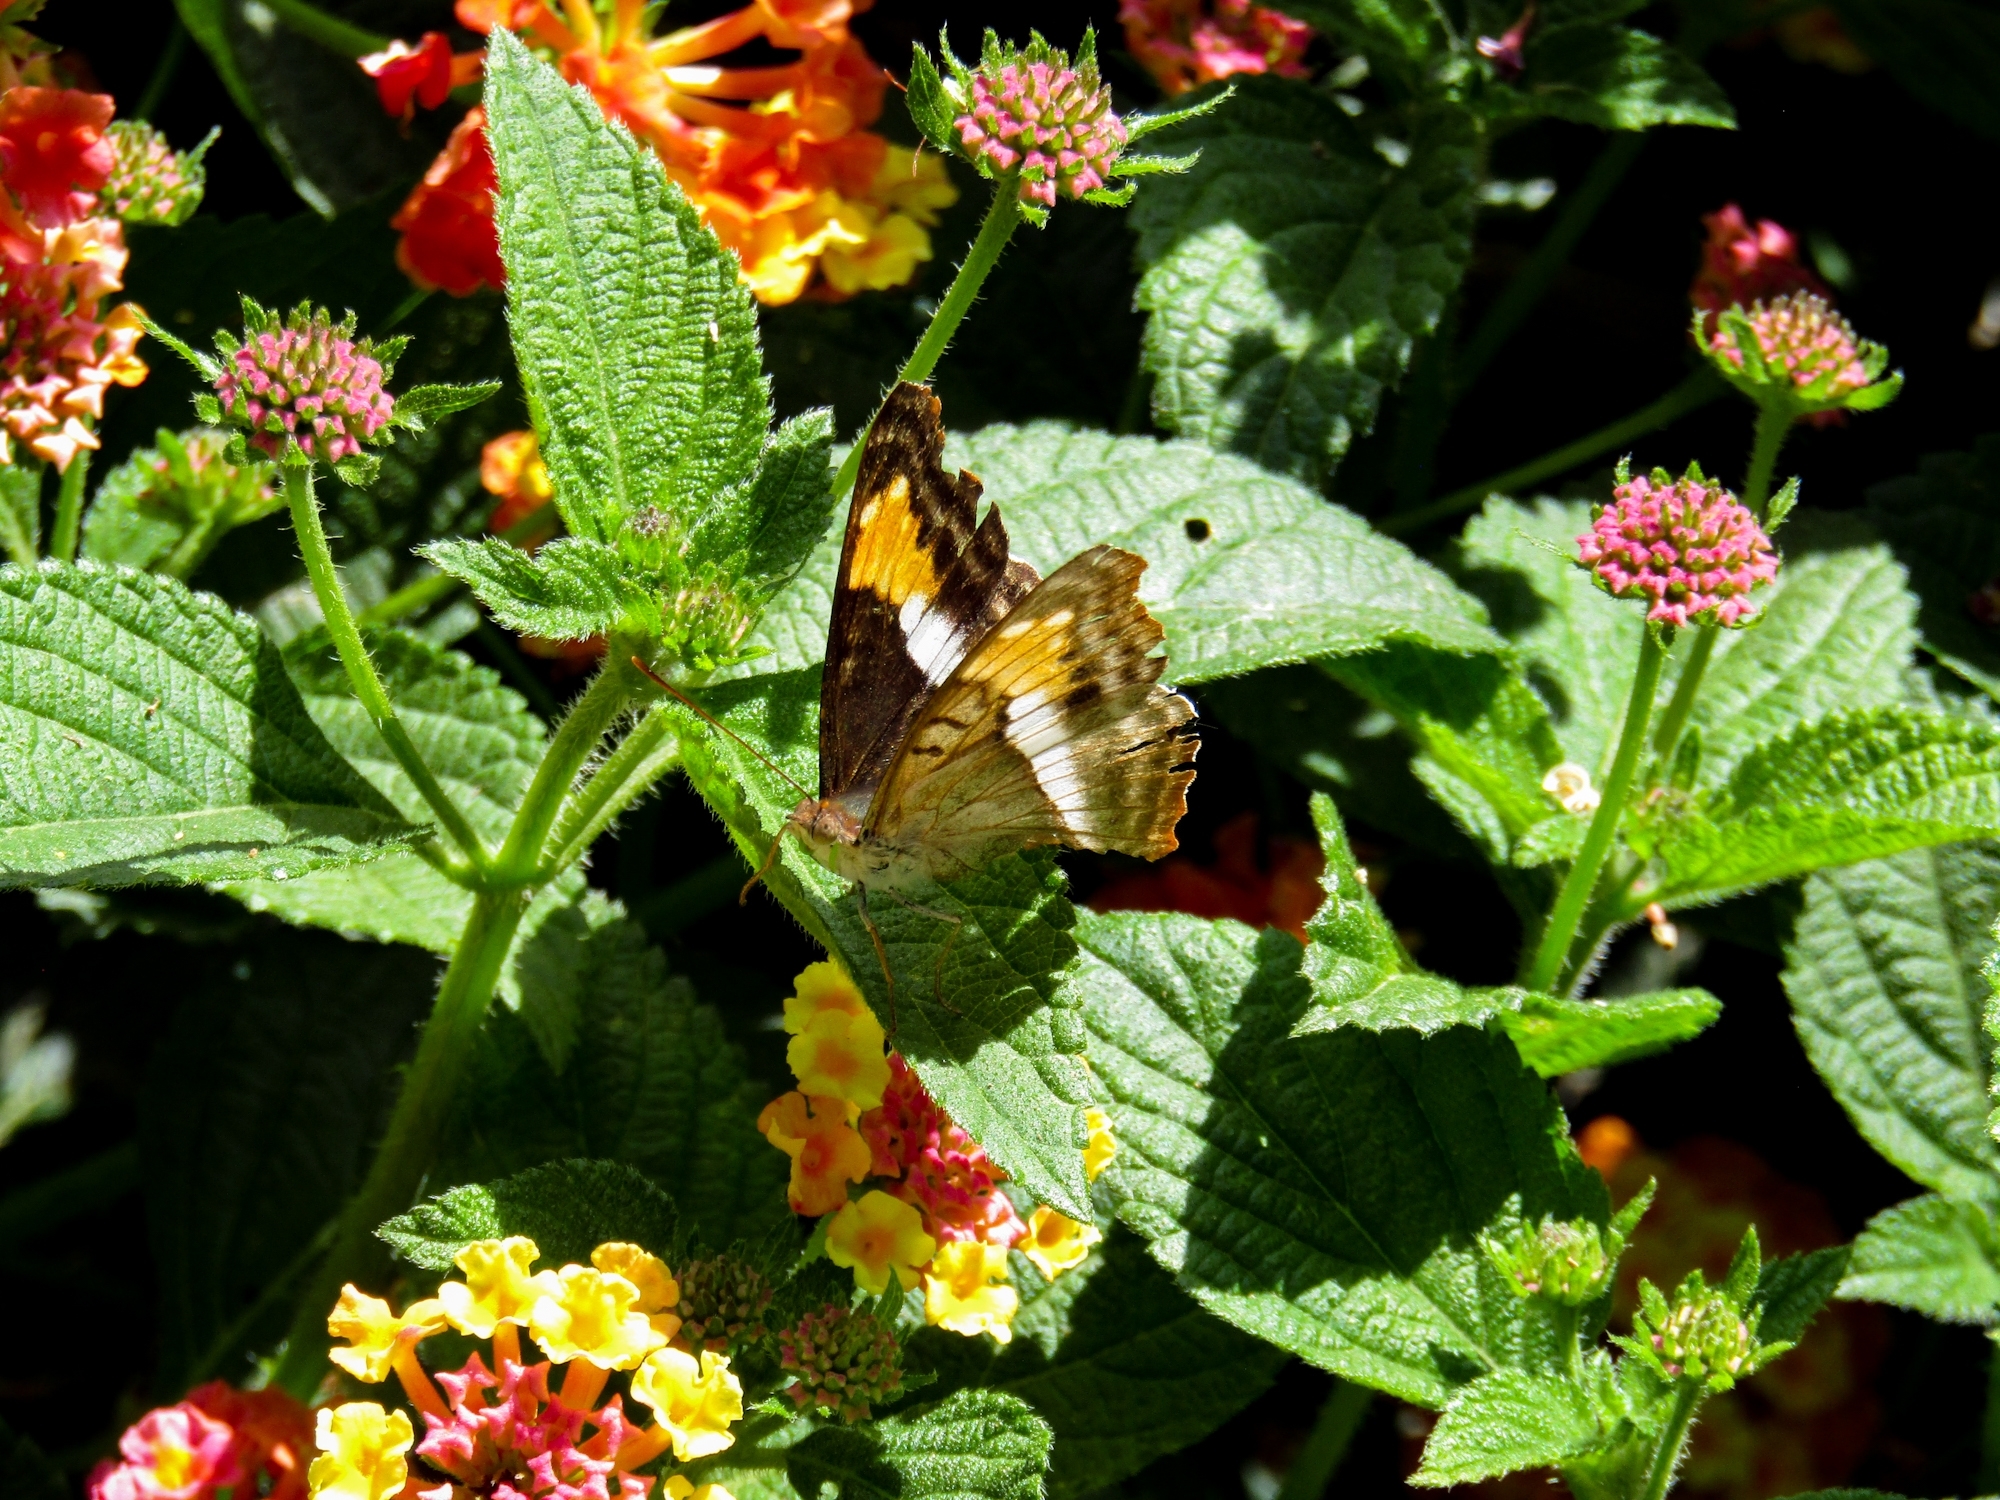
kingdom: Animalia
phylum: Arthropoda
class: Insecta
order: Lepidoptera
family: Nymphalidae
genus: Doxocopa
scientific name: Doxocopa laurentia
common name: Turquoise emperor
